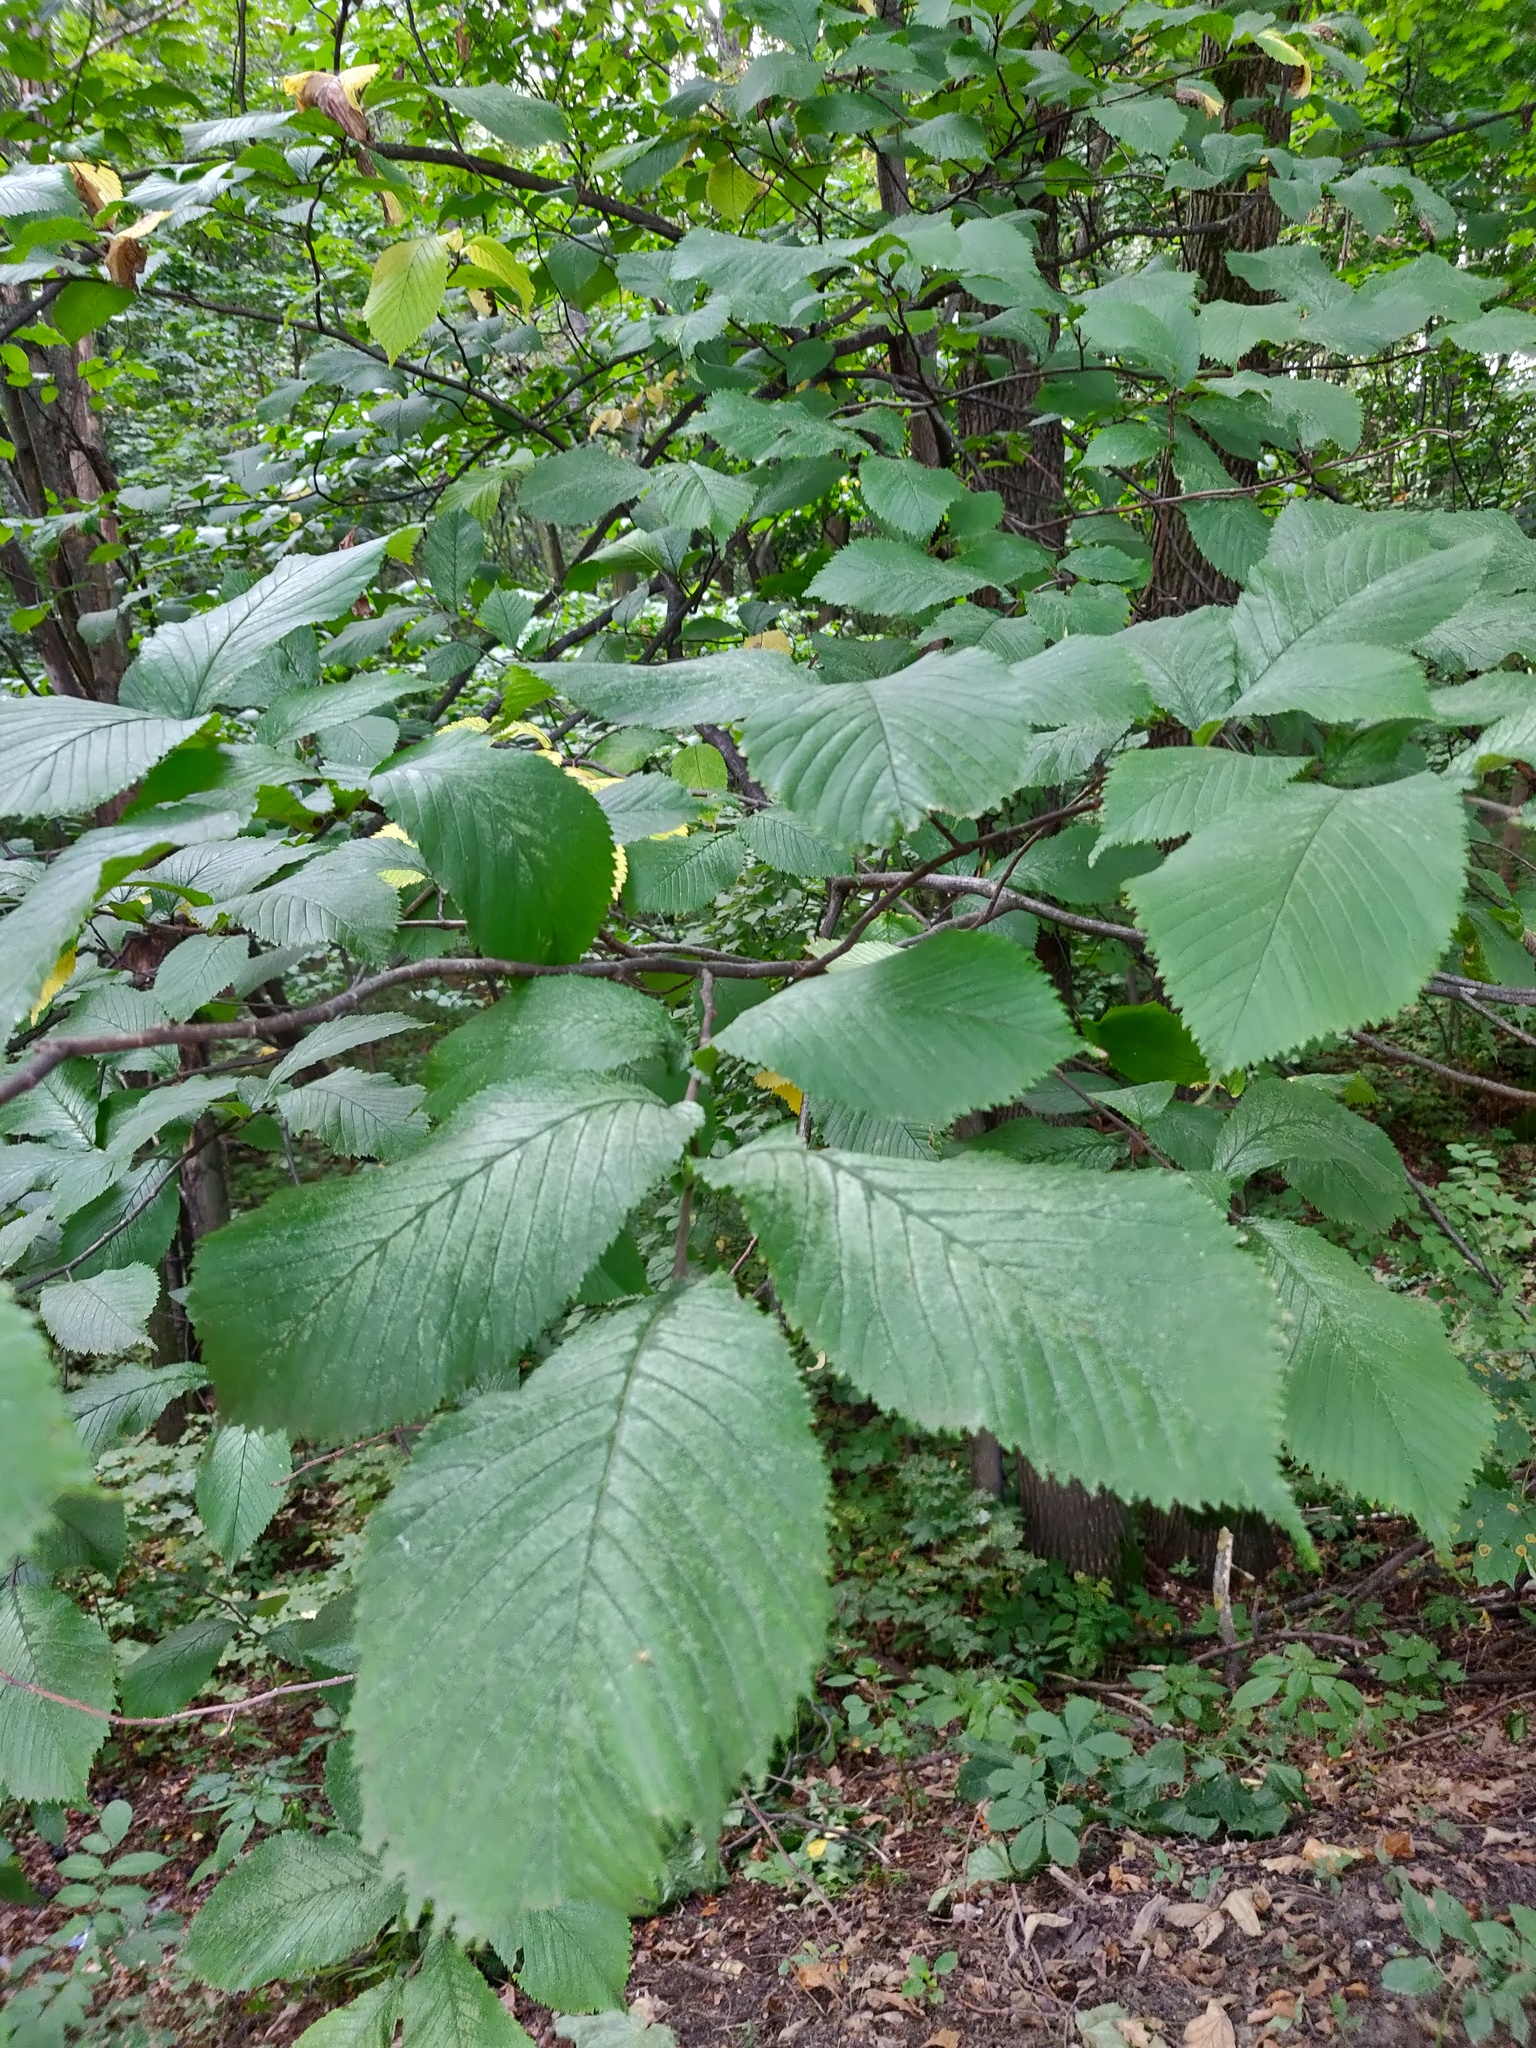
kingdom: Plantae
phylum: Tracheophyta
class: Magnoliopsida
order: Rosales
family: Ulmaceae
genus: Ulmus
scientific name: Ulmus glabra
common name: Wych elm
